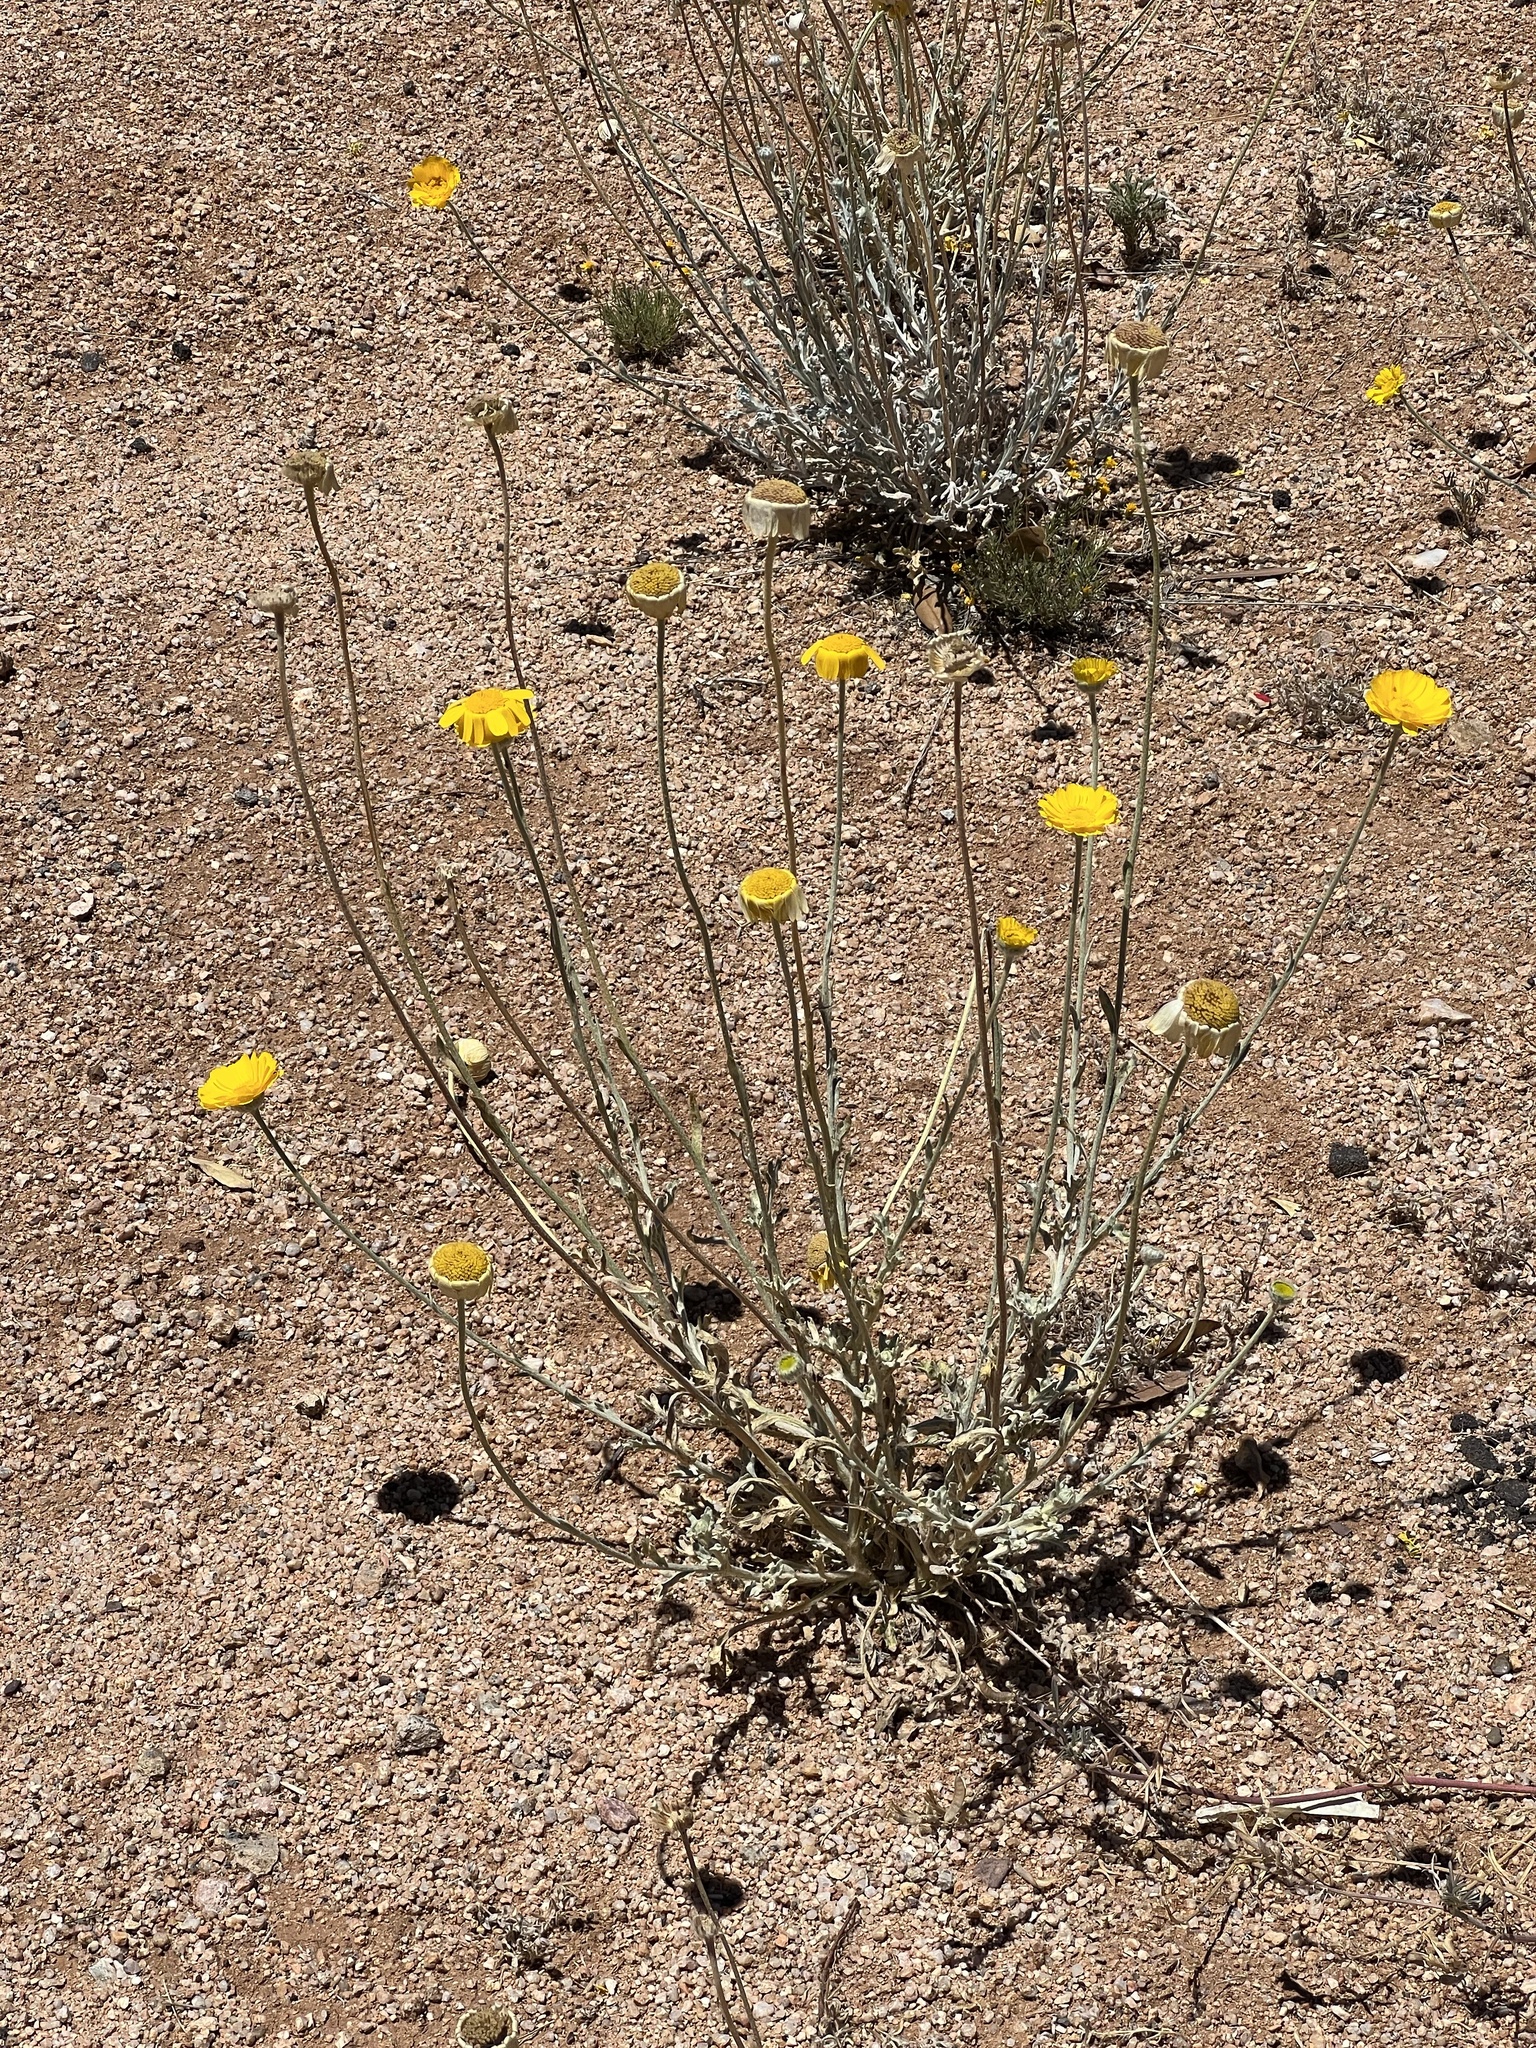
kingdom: Plantae
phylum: Tracheophyta
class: Magnoliopsida
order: Asterales
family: Asteraceae
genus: Baileya
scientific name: Baileya multiradiata
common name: Desert-marigold
